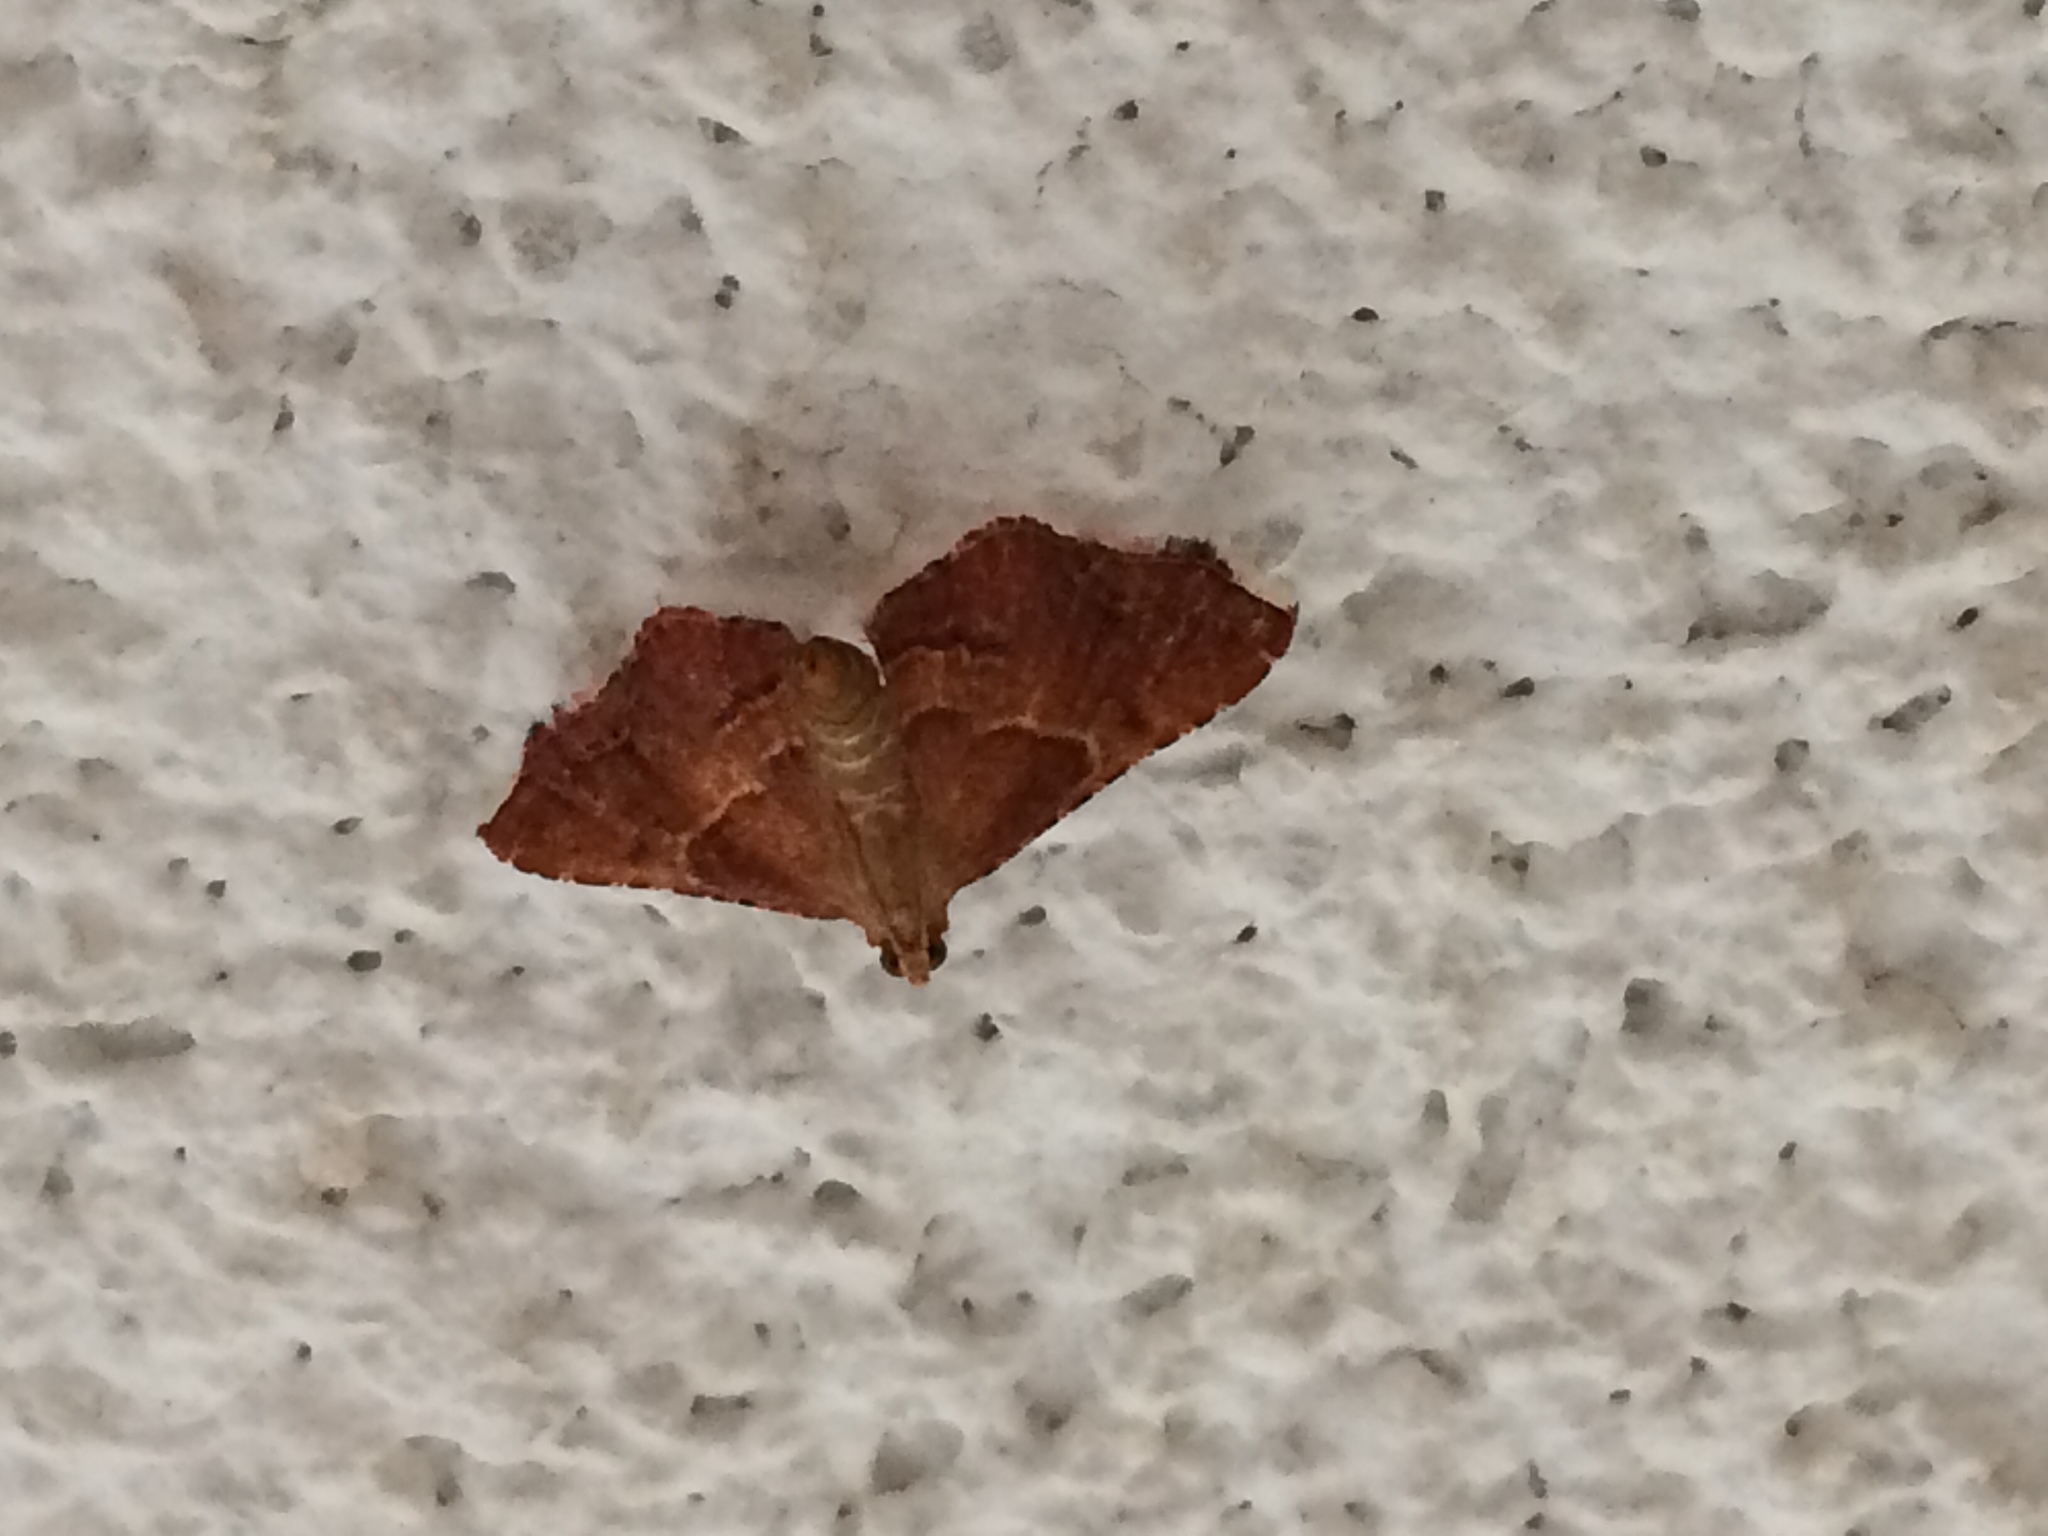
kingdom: Animalia
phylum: Arthropoda
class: Insecta
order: Lepidoptera
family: Pyralidae
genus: Endotricha
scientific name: Endotricha flammealis
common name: Rosy tabby
